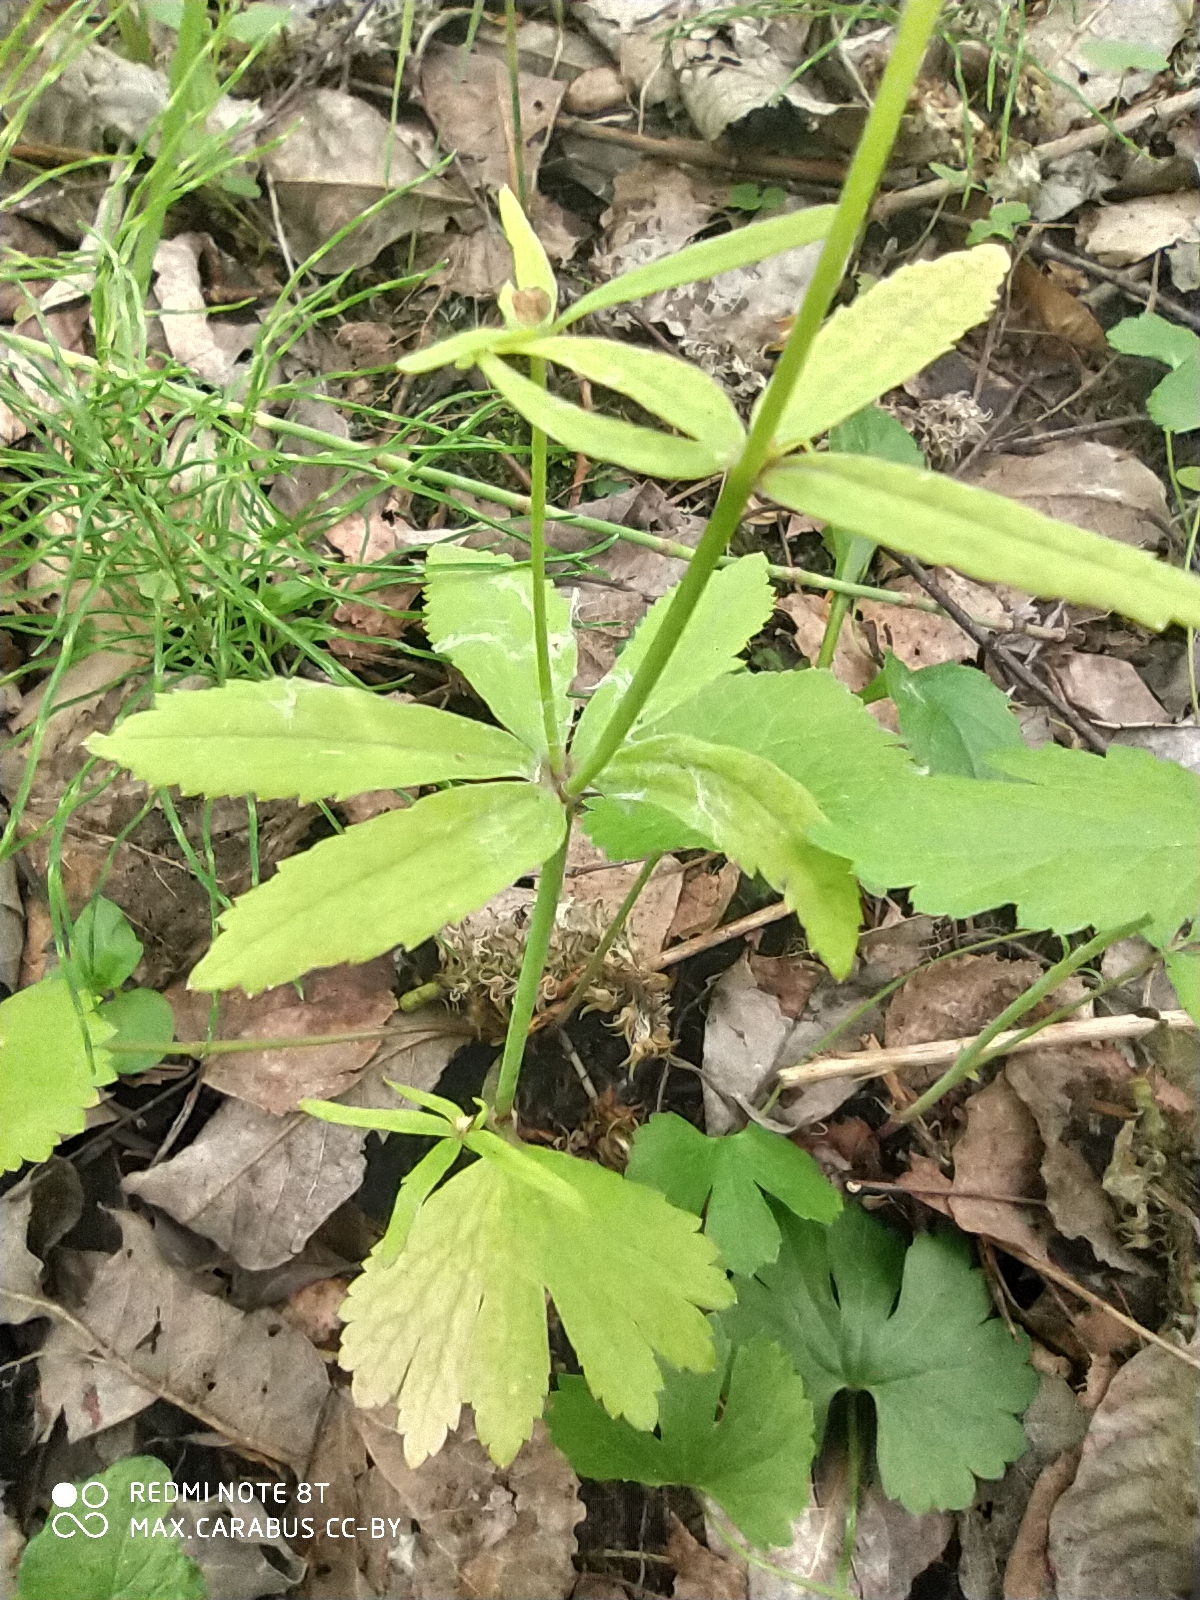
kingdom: Plantae
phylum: Tracheophyta
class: Magnoliopsida
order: Ranunculales
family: Ranunculaceae
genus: Ranunculus
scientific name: Ranunculus fallax
